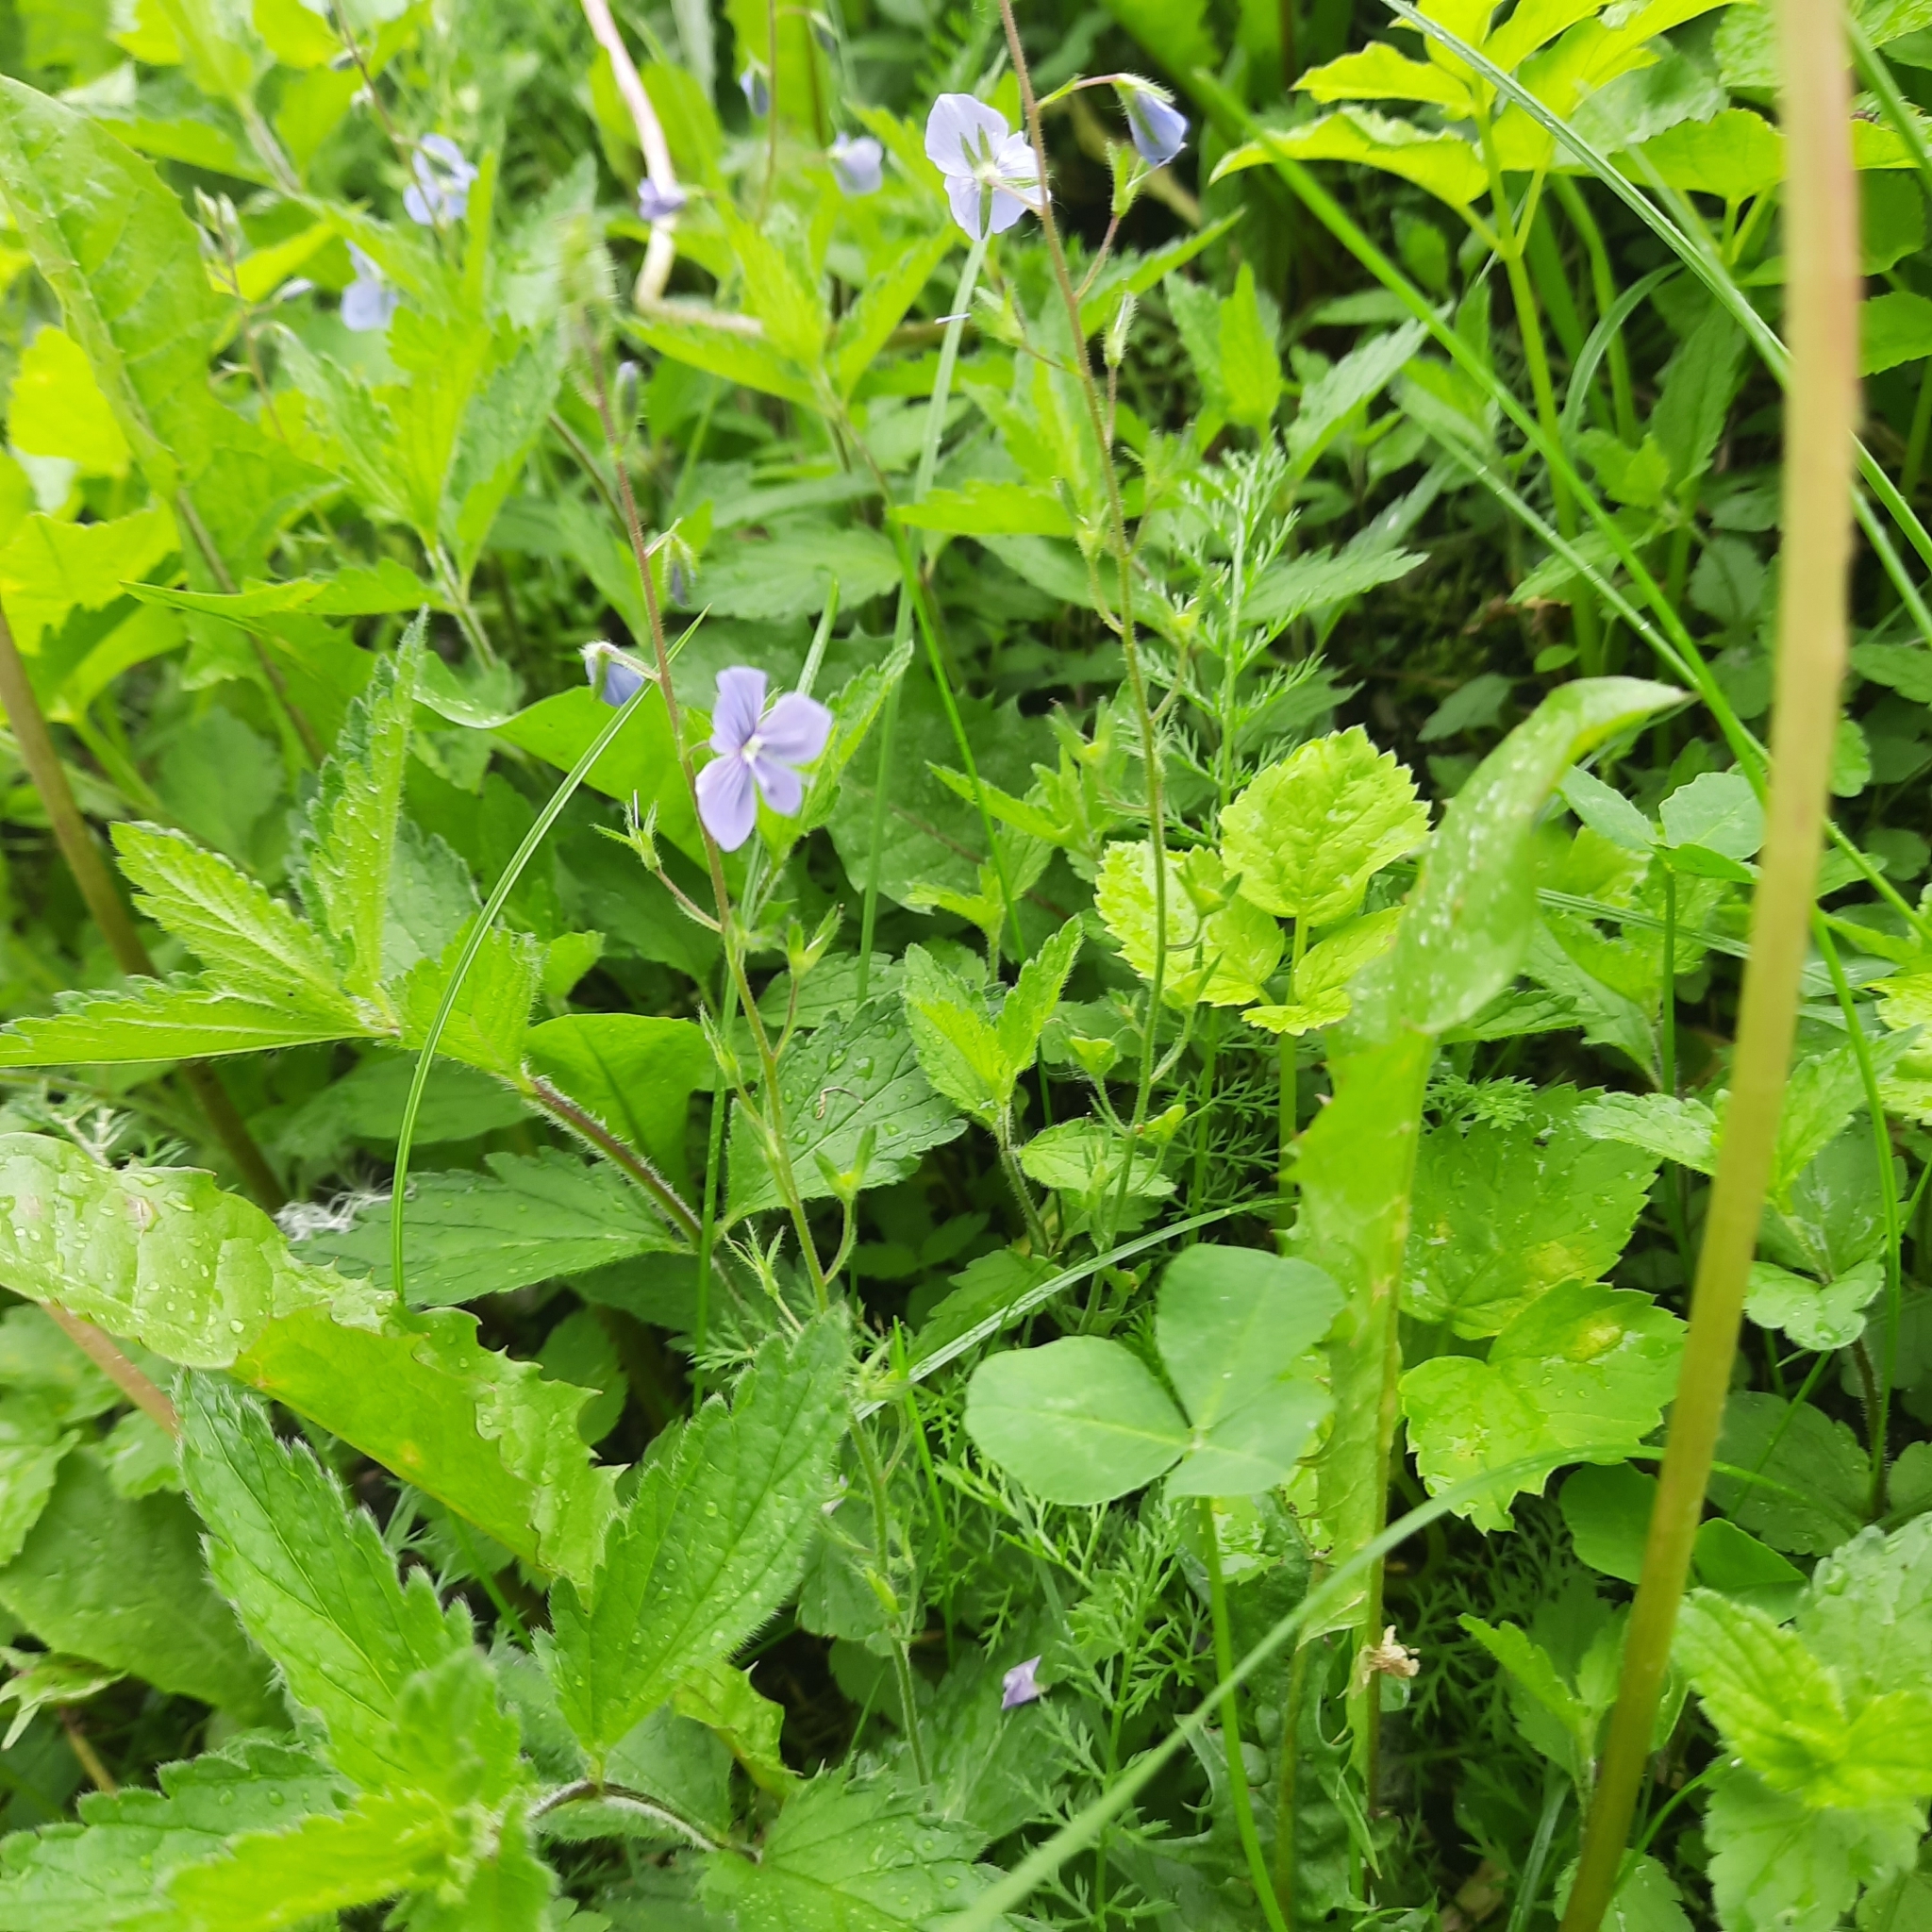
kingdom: Plantae
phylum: Tracheophyta
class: Magnoliopsida
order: Lamiales
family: Plantaginaceae
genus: Veronica
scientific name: Veronica chamaedrys
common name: Germander speedwell
